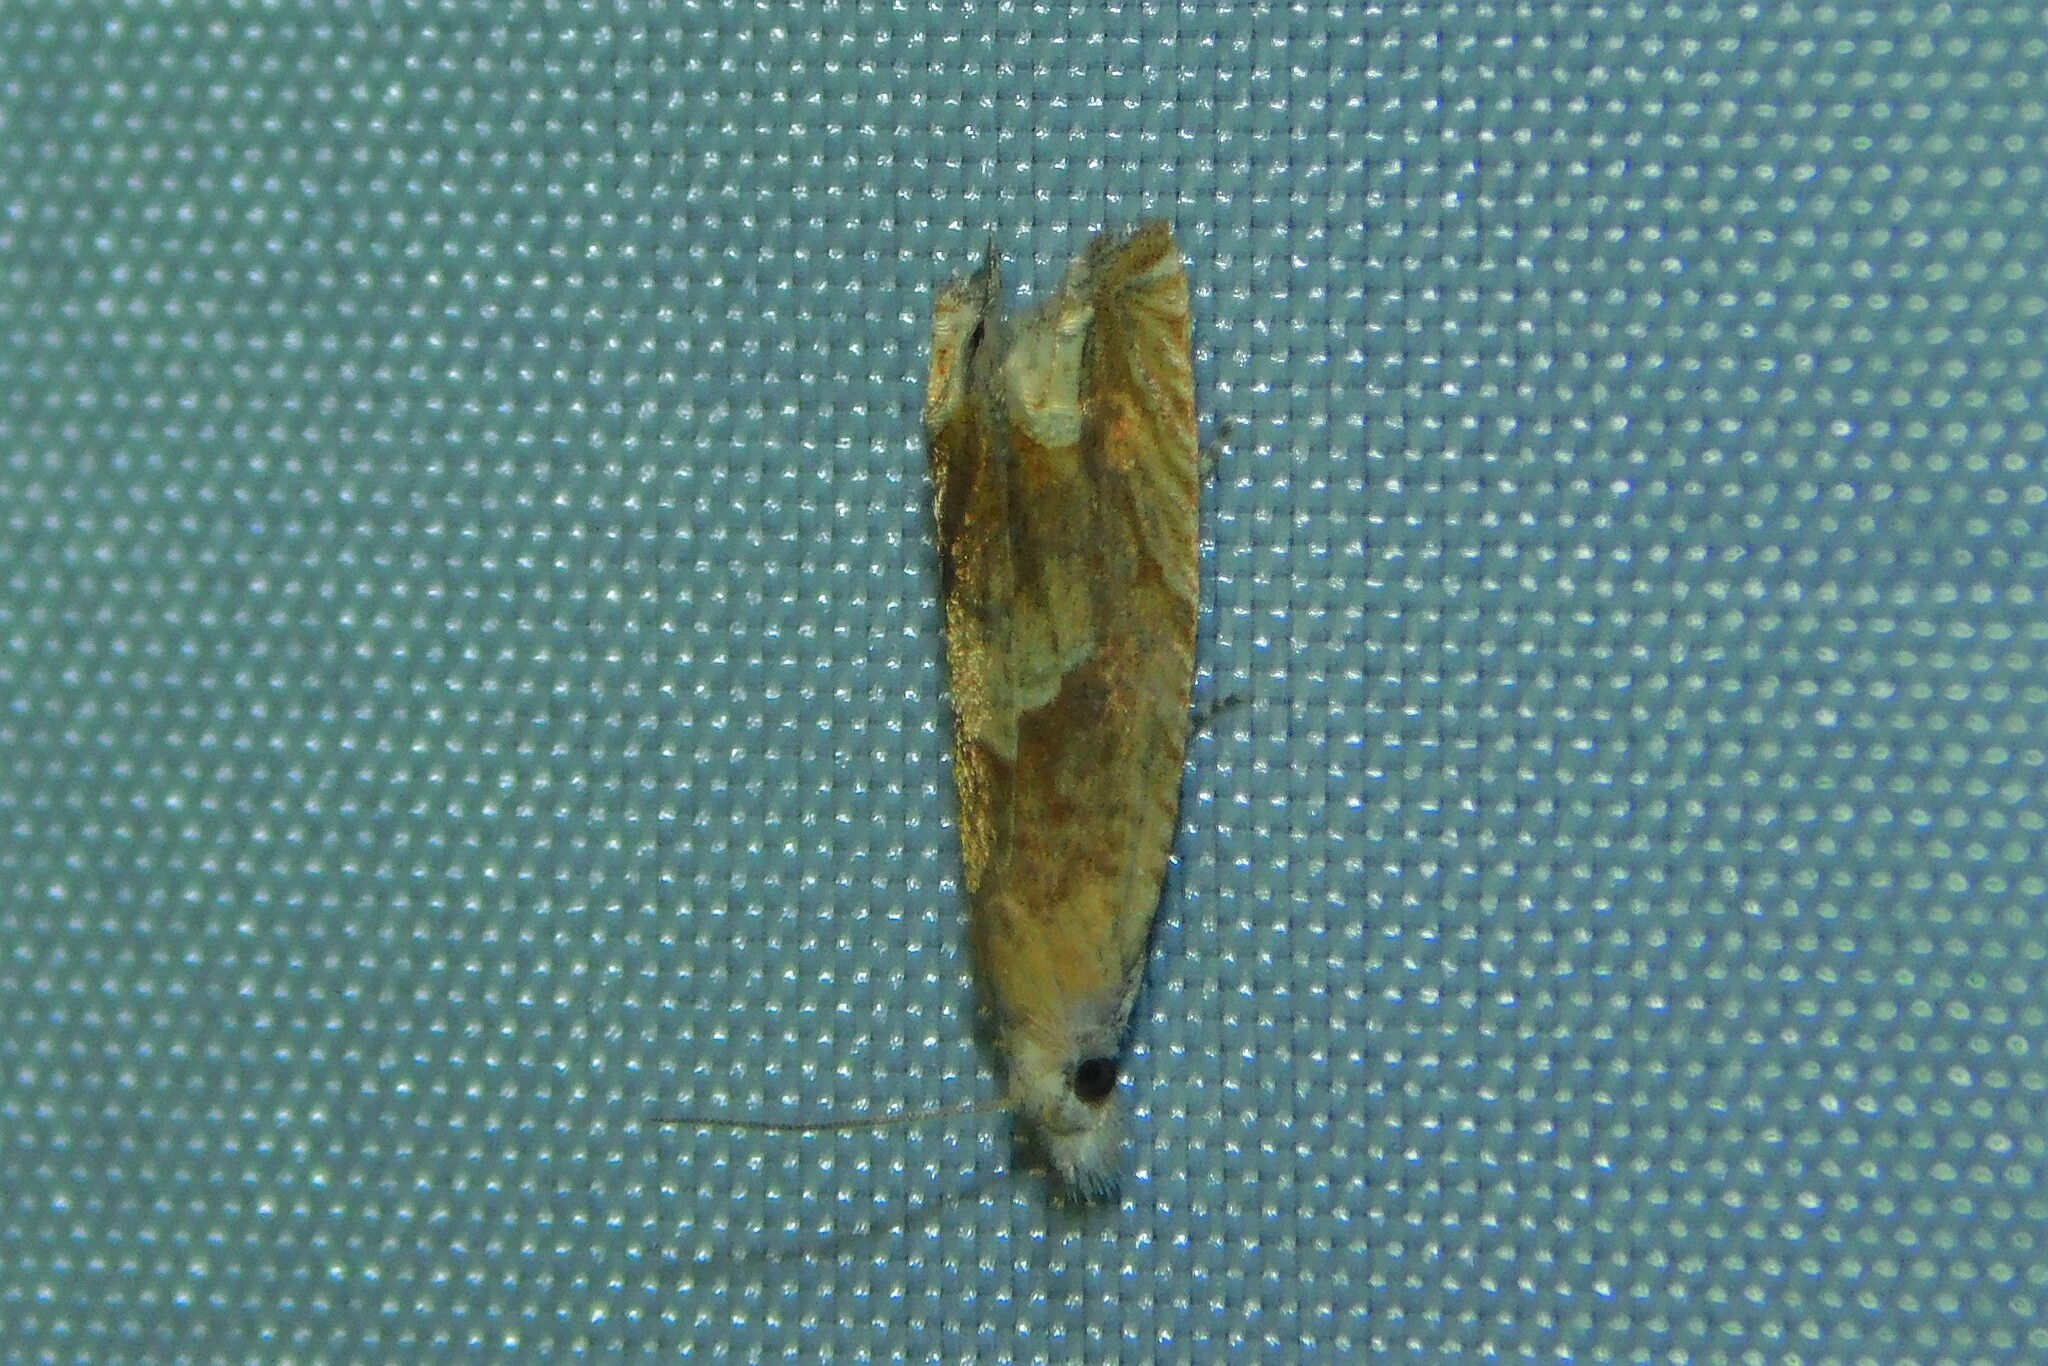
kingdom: Animalia
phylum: Arthropoda
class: Insecta
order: Lepidoptera
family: Tortricidae
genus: Eucosma
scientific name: Eucosma conterminana
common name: Pale lettuce bell
